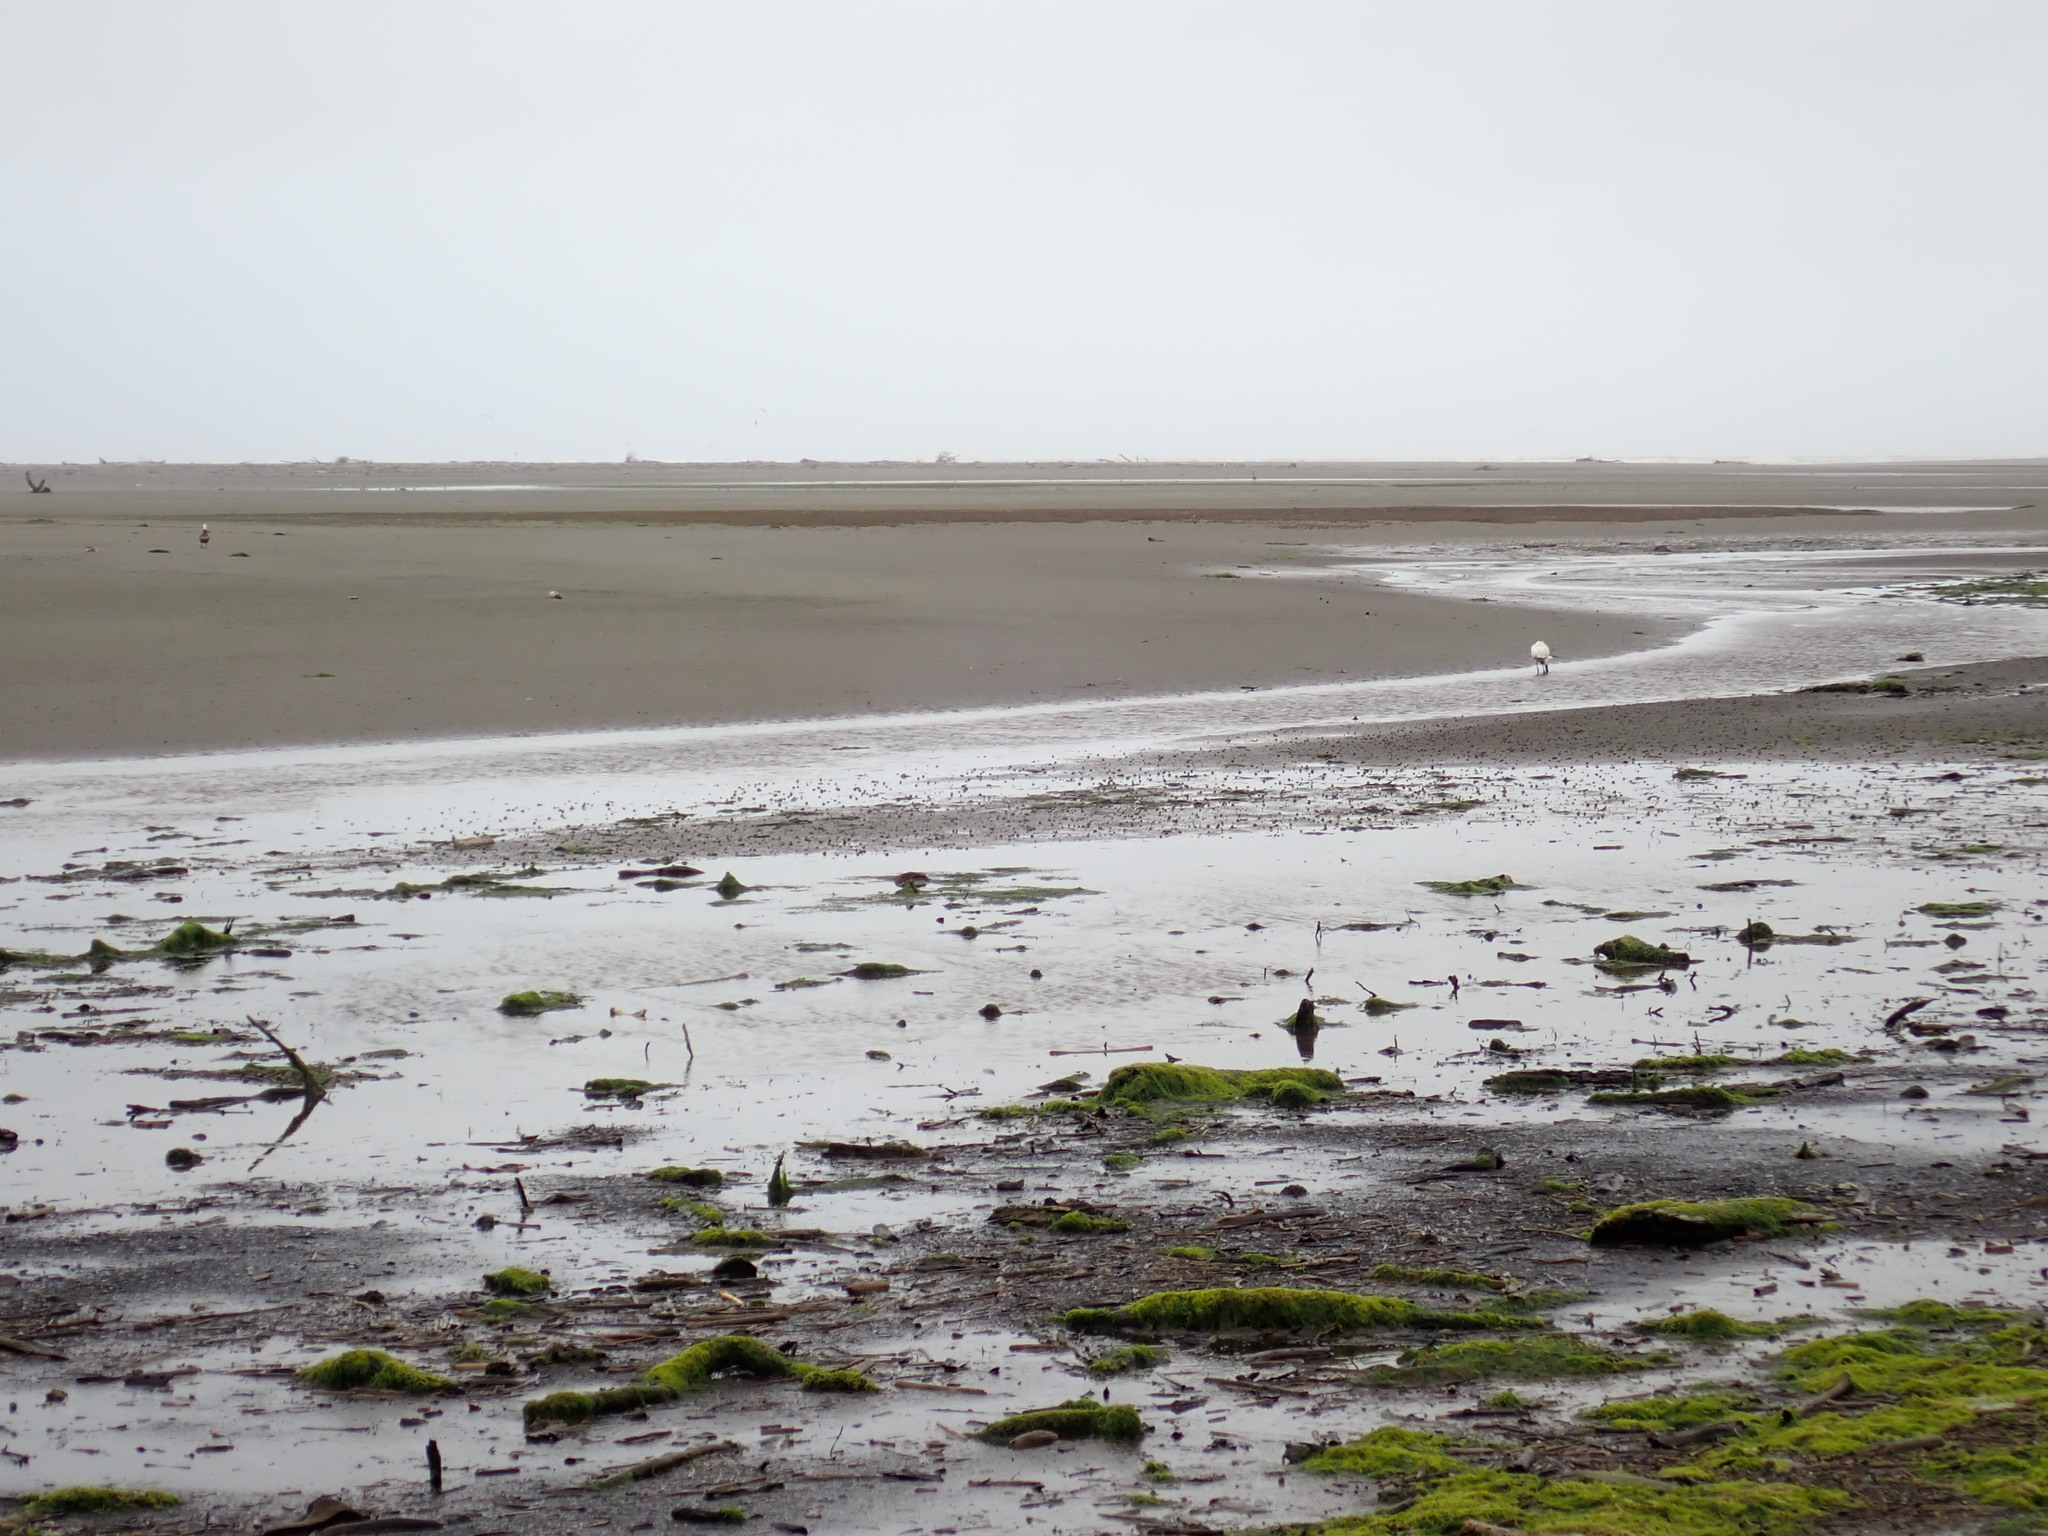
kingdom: Animalia
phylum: Chordata
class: Aves
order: Pelecaniformes
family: Threskiornithidae
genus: Platalea
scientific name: Platalea regia
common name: Royal spoonbill
